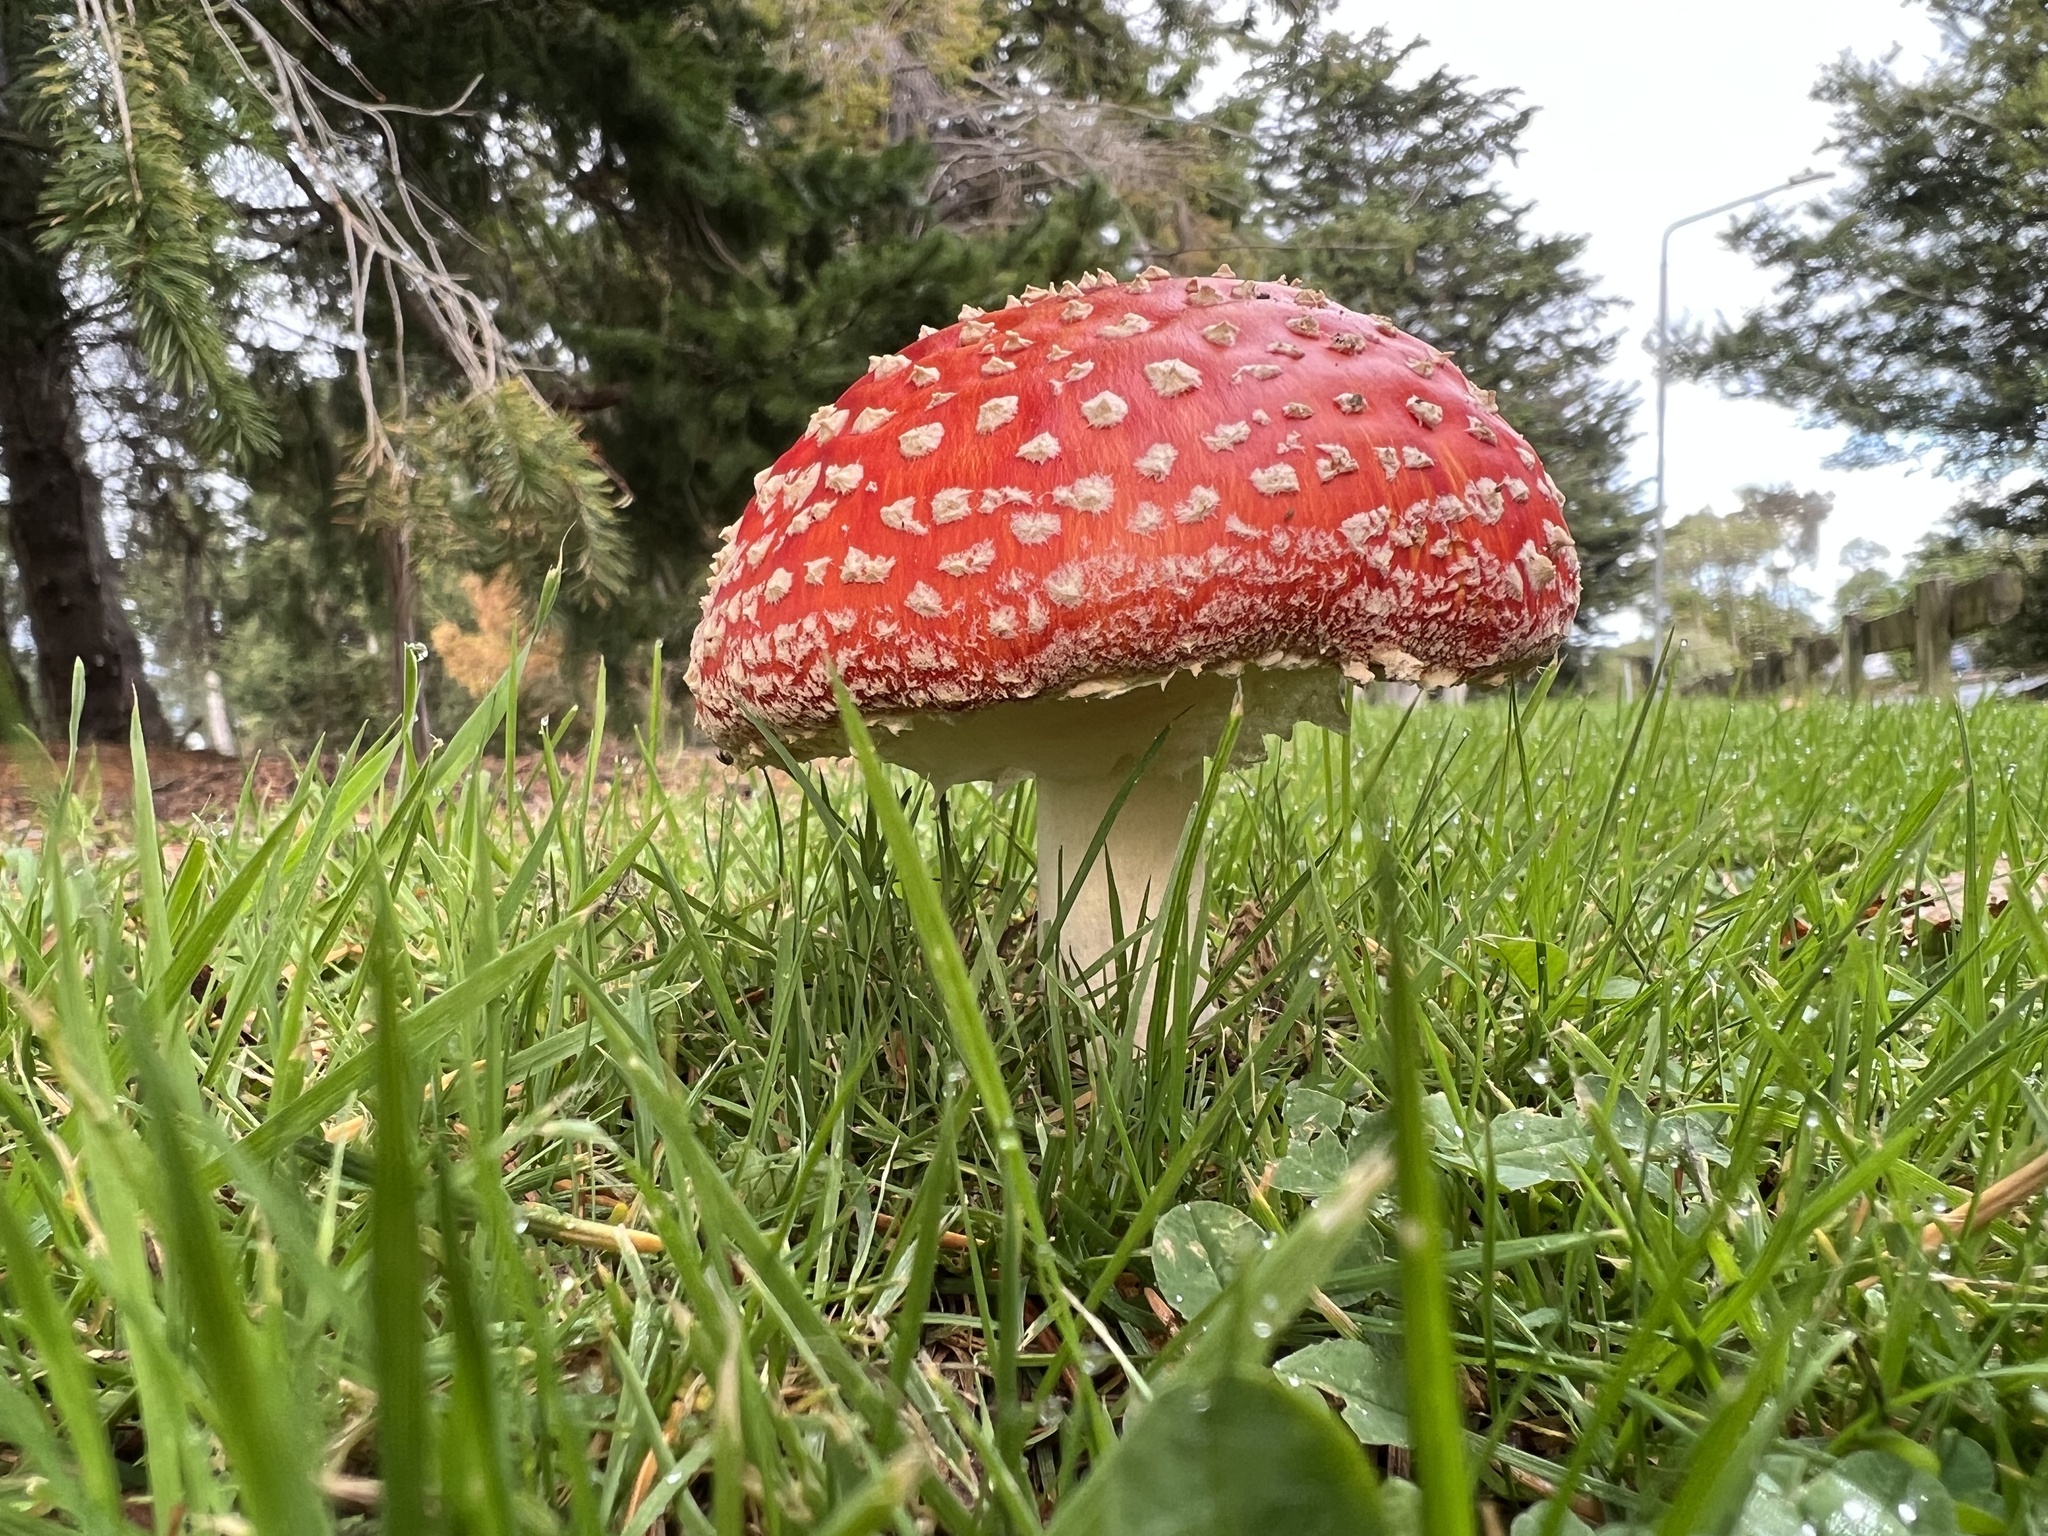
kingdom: Fungi
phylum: Basidiomycota
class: Agaricomycetes
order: Agaricales
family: Amanitaceae
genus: Amanita
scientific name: Amanita muscaria
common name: Fly agaric
